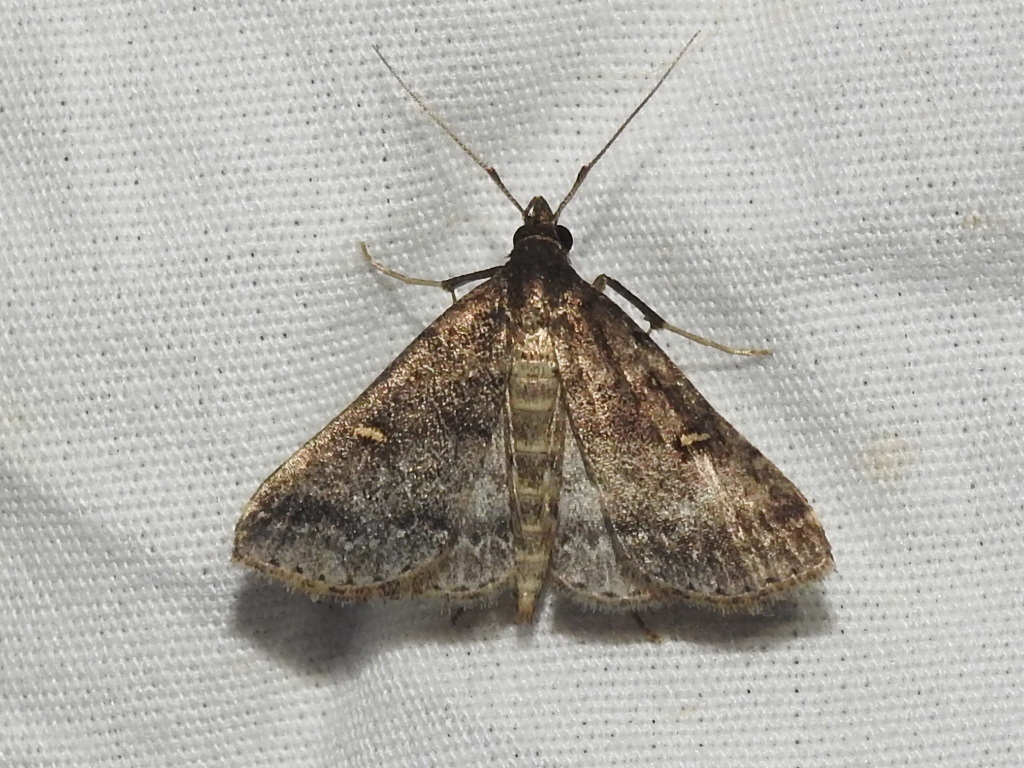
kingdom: Animalia
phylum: Arthropoda
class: Insecta
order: Lepidoptera
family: Erebidae
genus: Tetanolita
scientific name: Tetanolita mynesalis
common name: Smoky tetanolita moth
